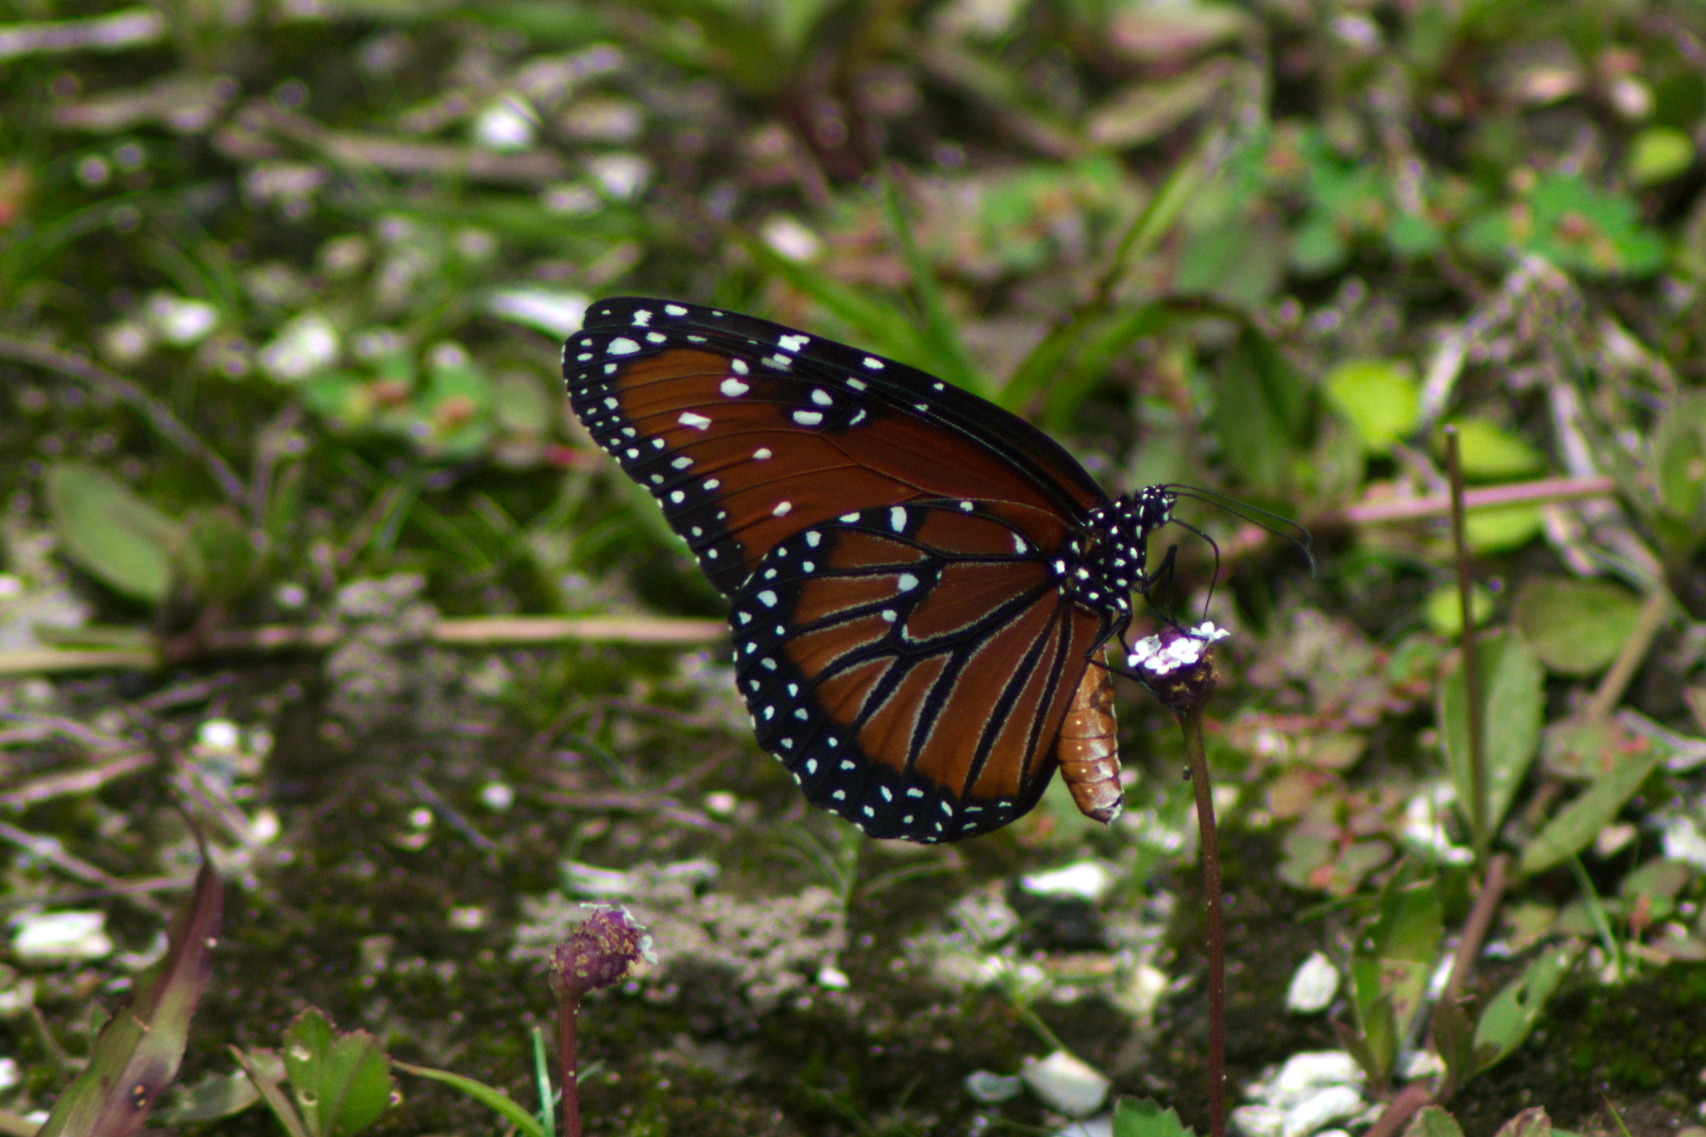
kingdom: Animalia
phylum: Arthropoda
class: Insecta
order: Lepidoptera
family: Nymphalidae
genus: Danaus
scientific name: Danaus gilippus
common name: Queen
